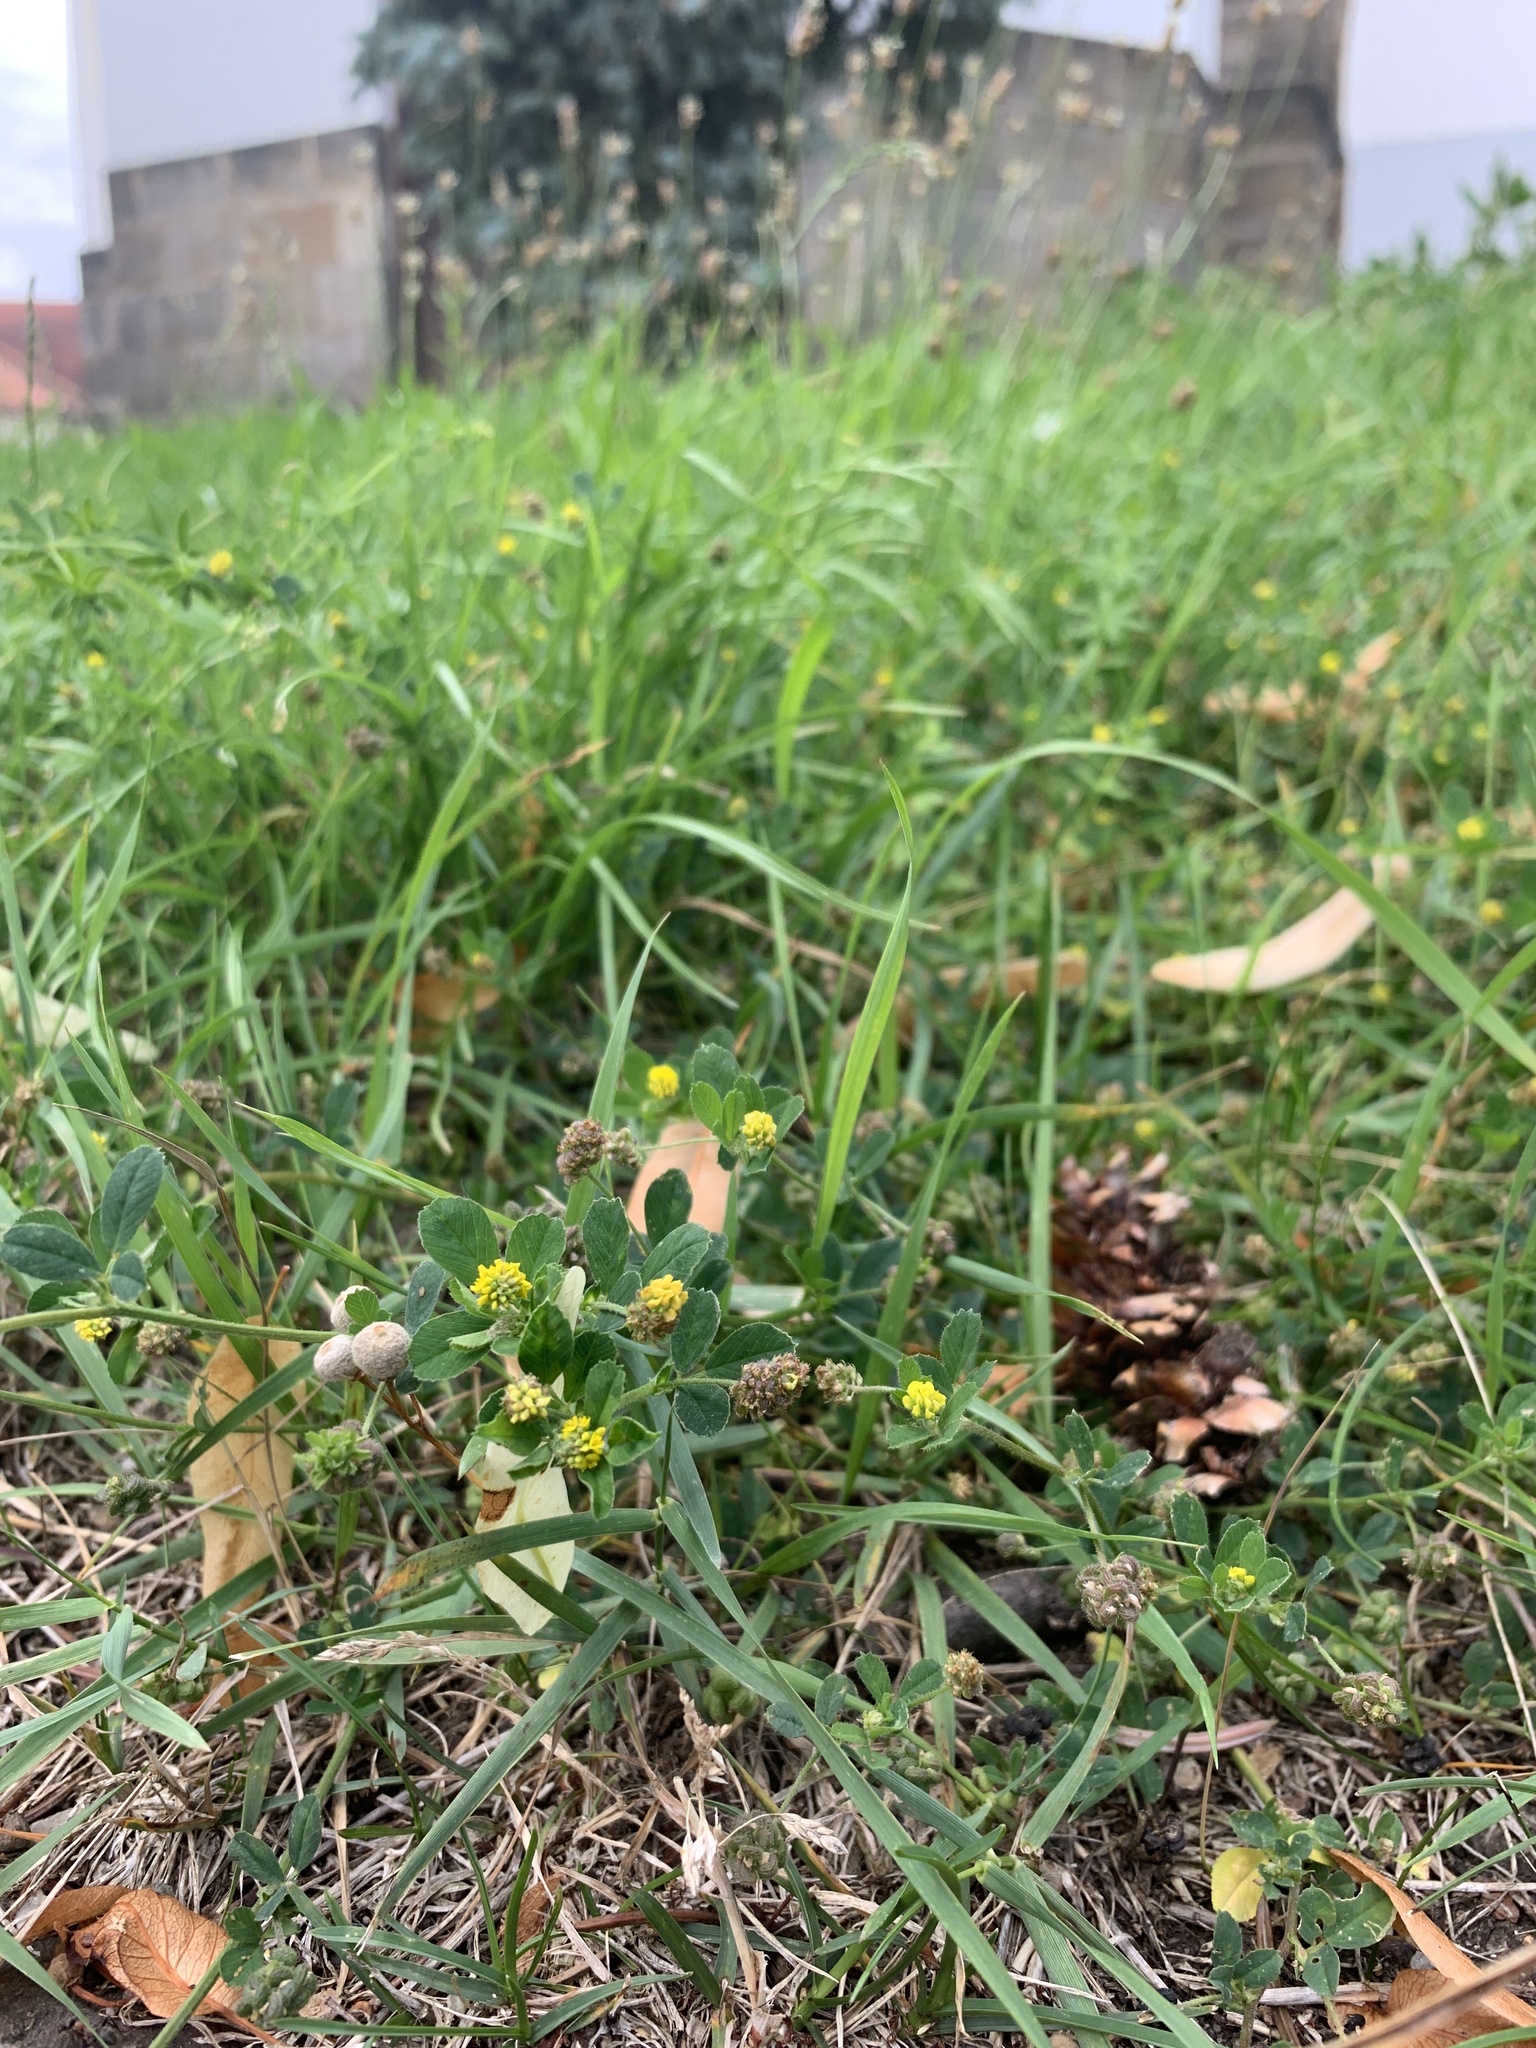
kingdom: Plantae
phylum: Tracheophyta
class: Magnoliopsida
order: Fabales
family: Fabaceae
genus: Medicago
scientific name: Medicago lupulina
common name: Black medick
